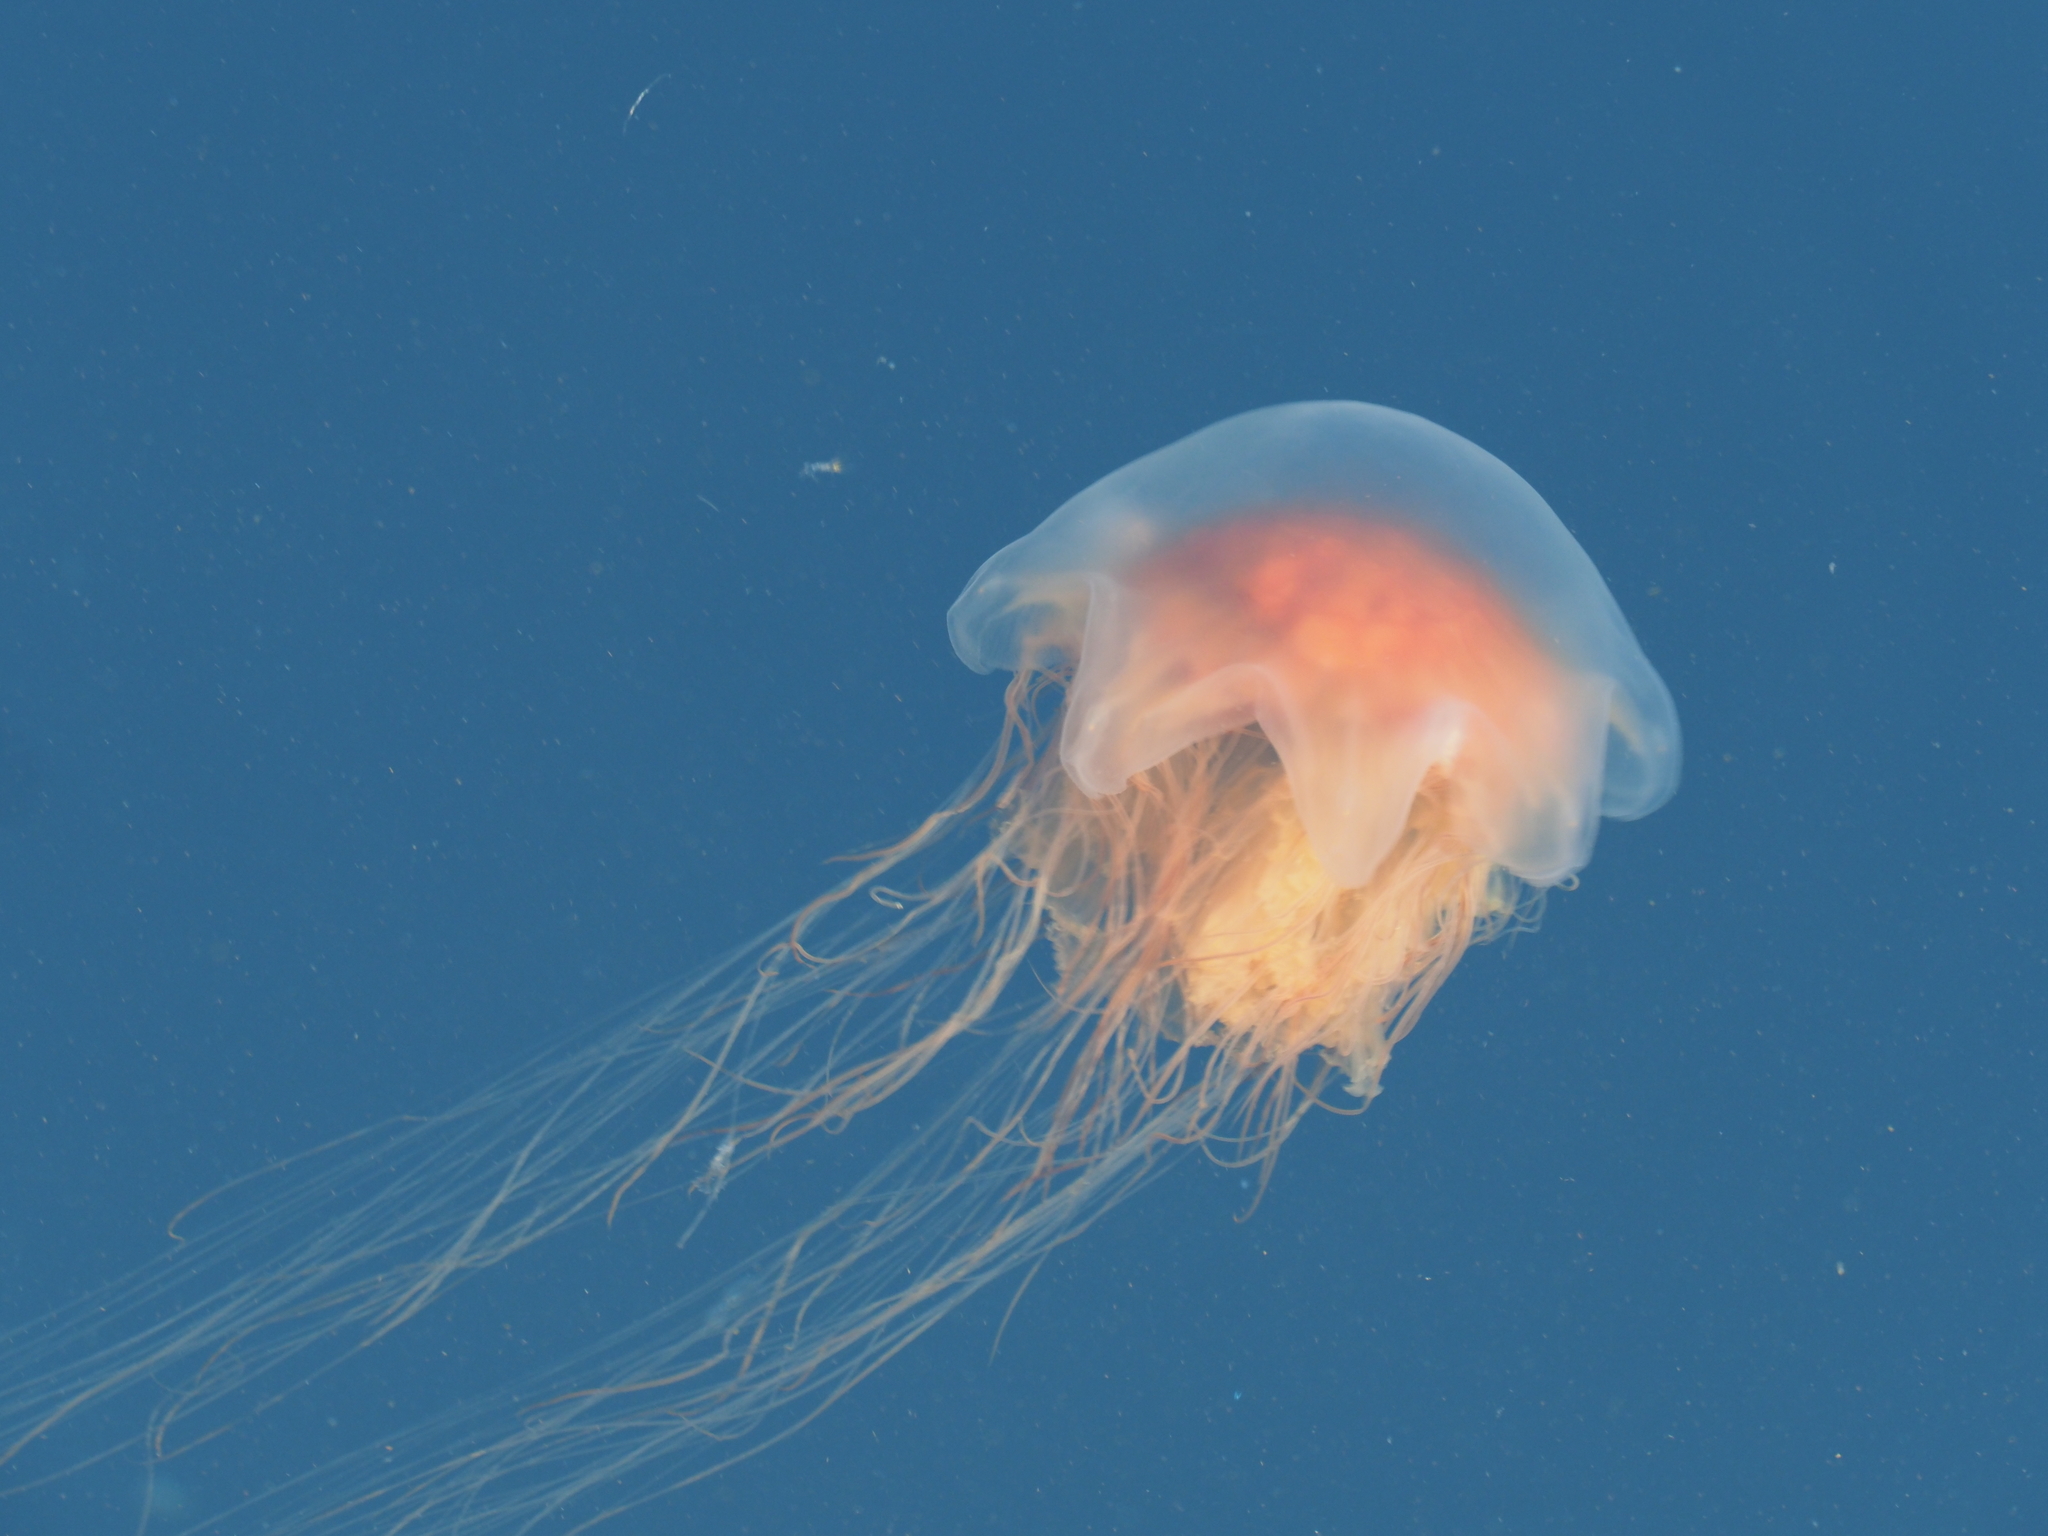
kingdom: Animalia
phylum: Cnidaria
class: Scyphozoa
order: Semaeostomeae
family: Cyaneidae
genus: Cyanea
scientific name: Cyanea
